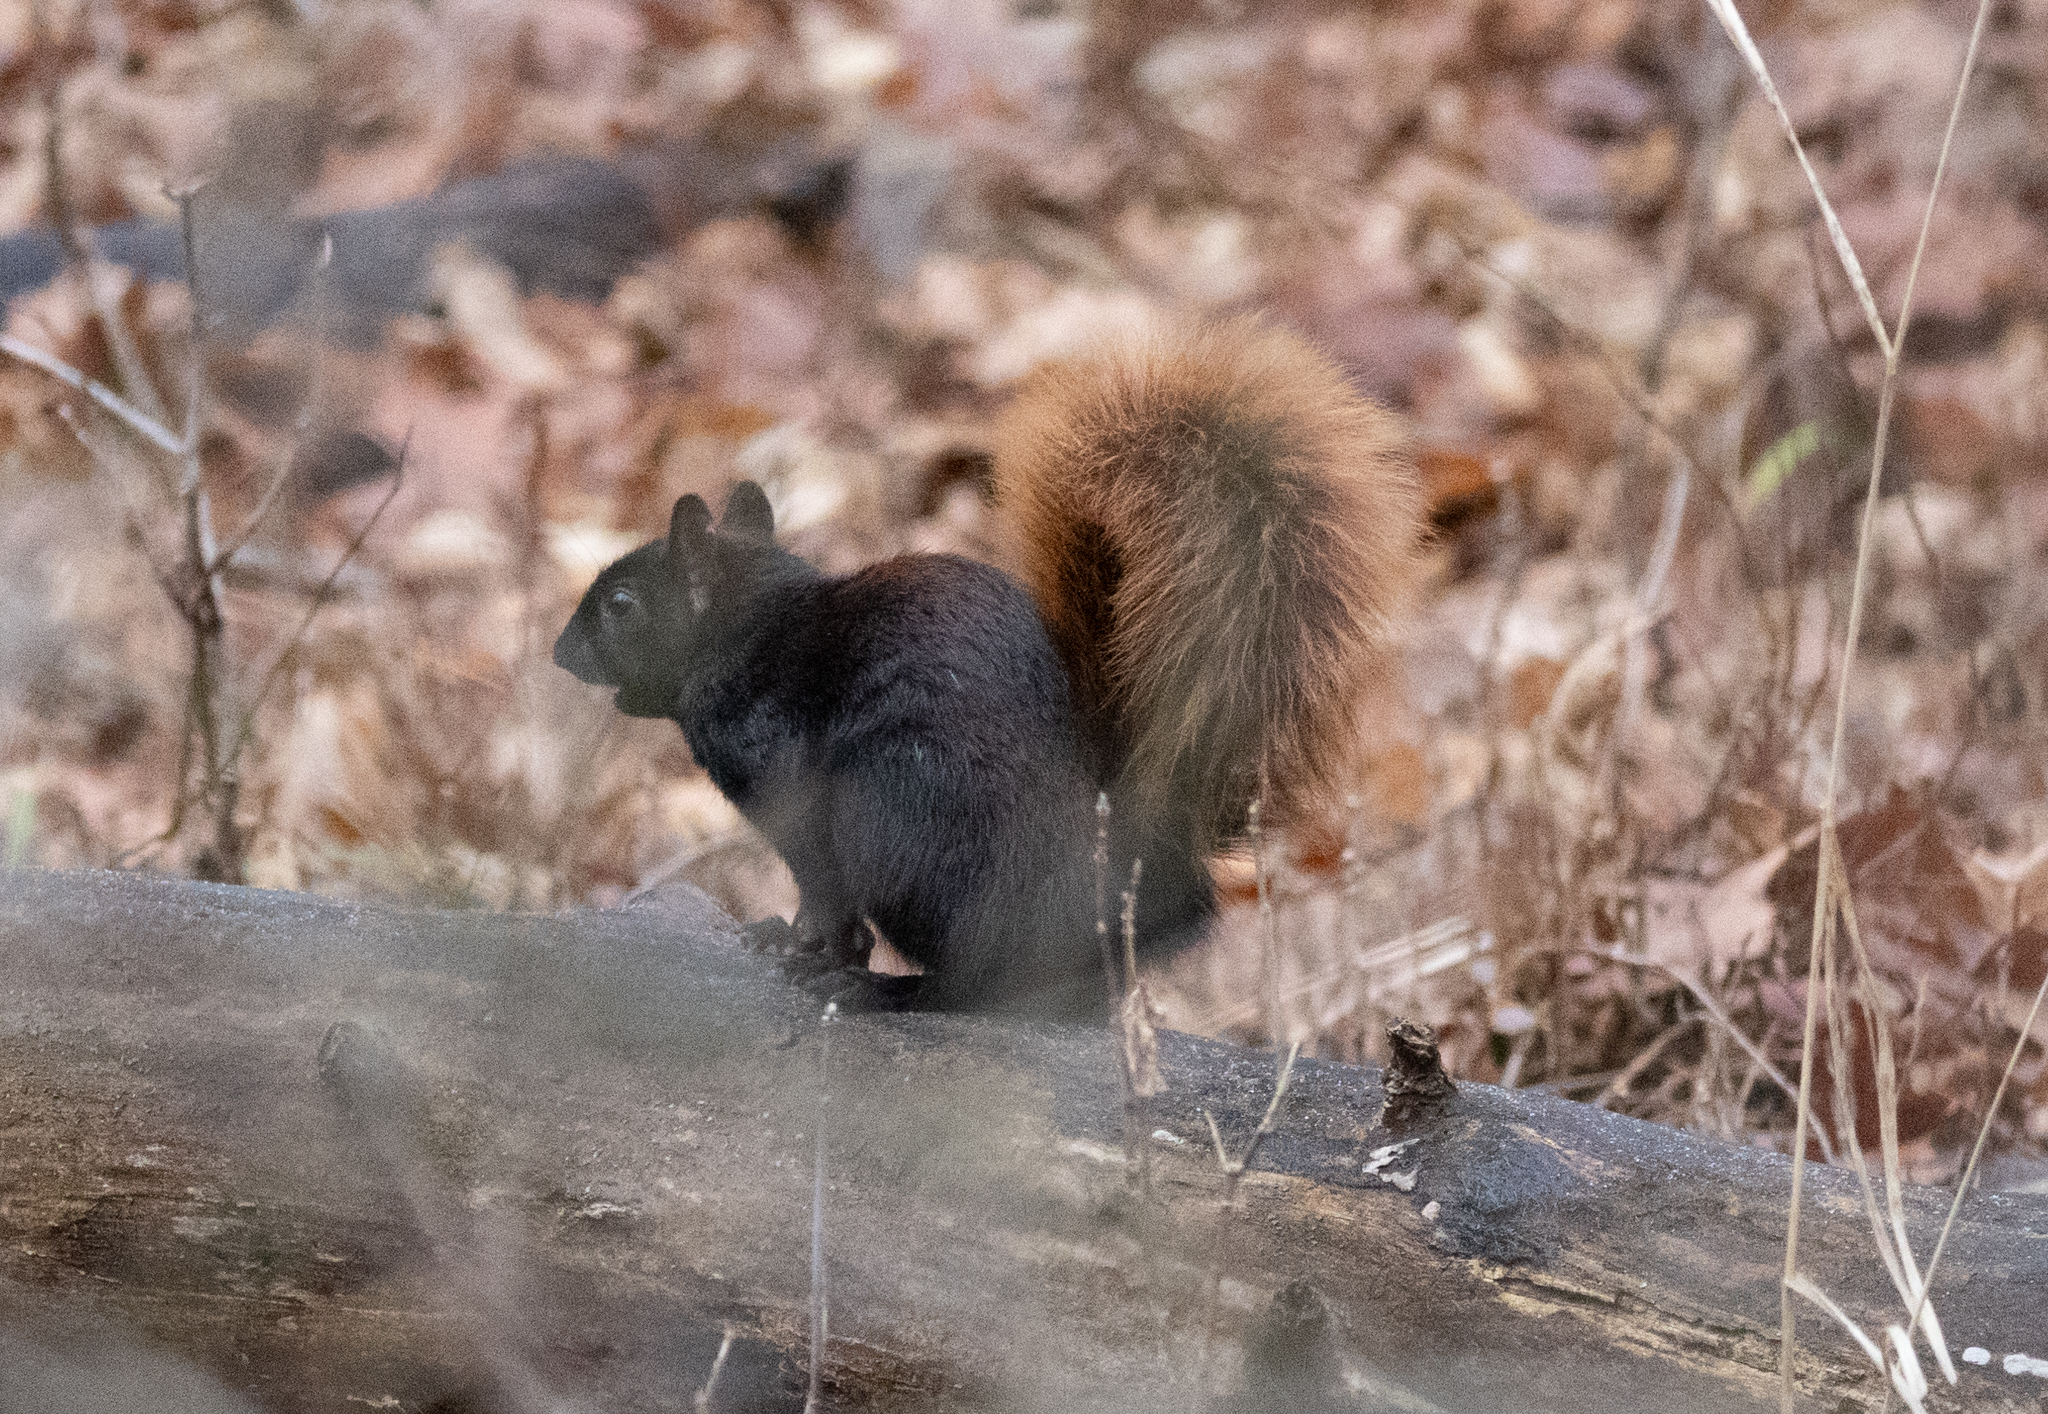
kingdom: Animalia
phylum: Chordata
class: Mammalia
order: Rodentia
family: Sciuridae
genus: Sciurus
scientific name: Sciurus carolinensis
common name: Eastern gray squirrel
